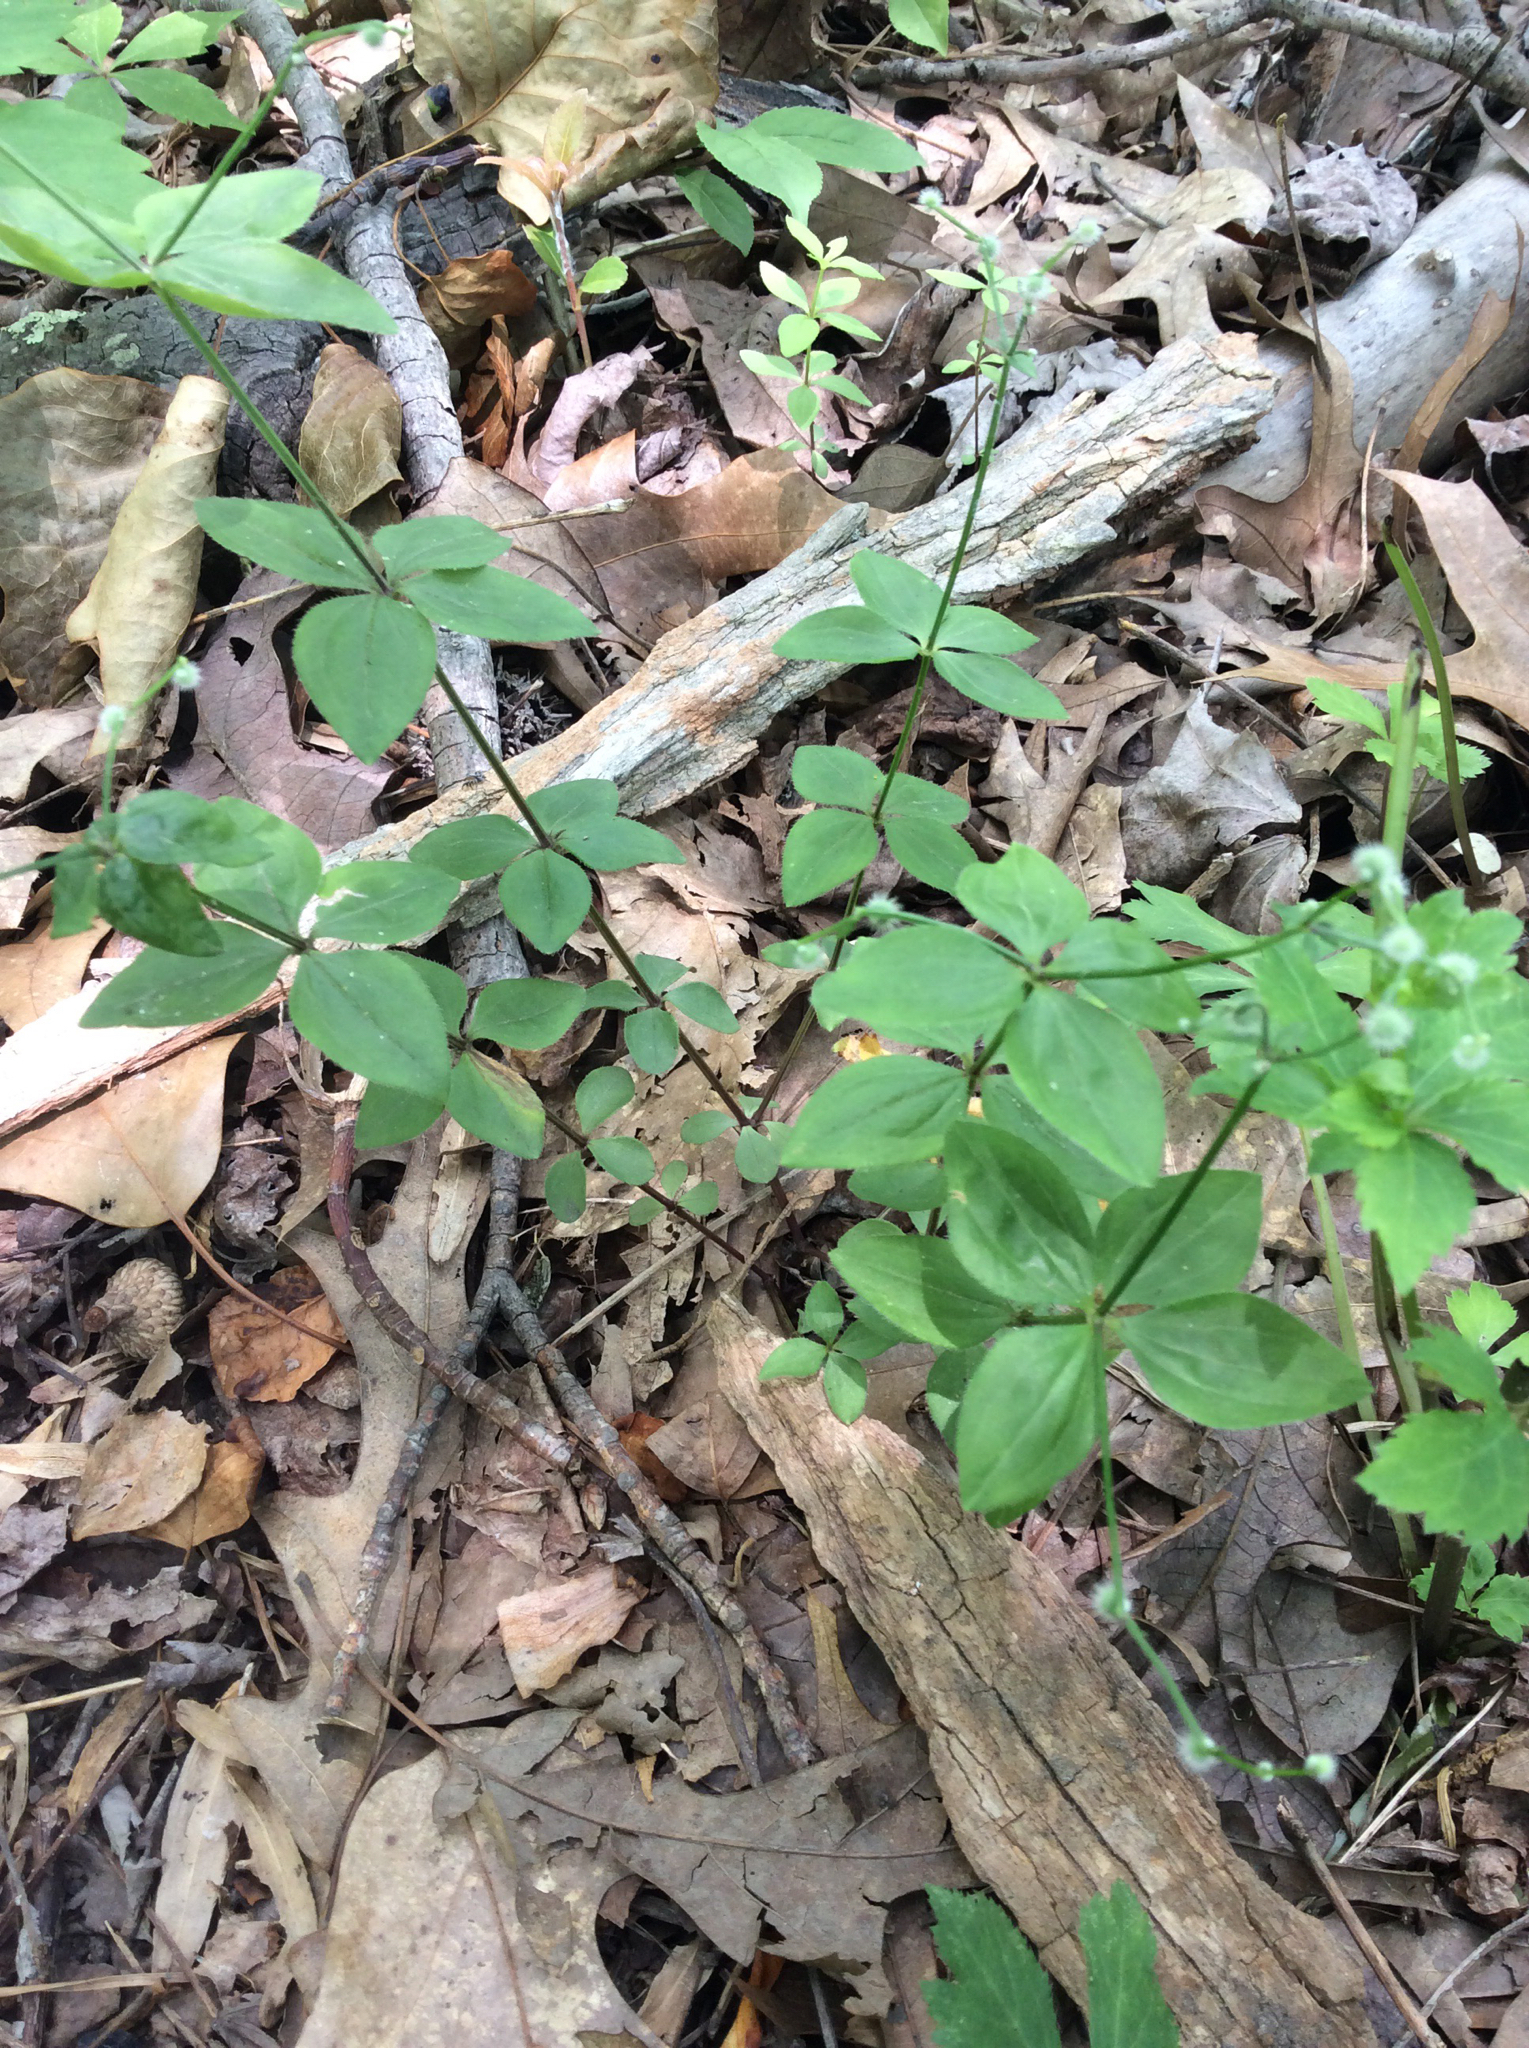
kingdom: Plantae
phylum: Tracheophyta
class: Magnoliopsida
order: Gentianales
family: Rubiaceae
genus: Galium
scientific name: Galium circaezans
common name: Forest bedstraw
